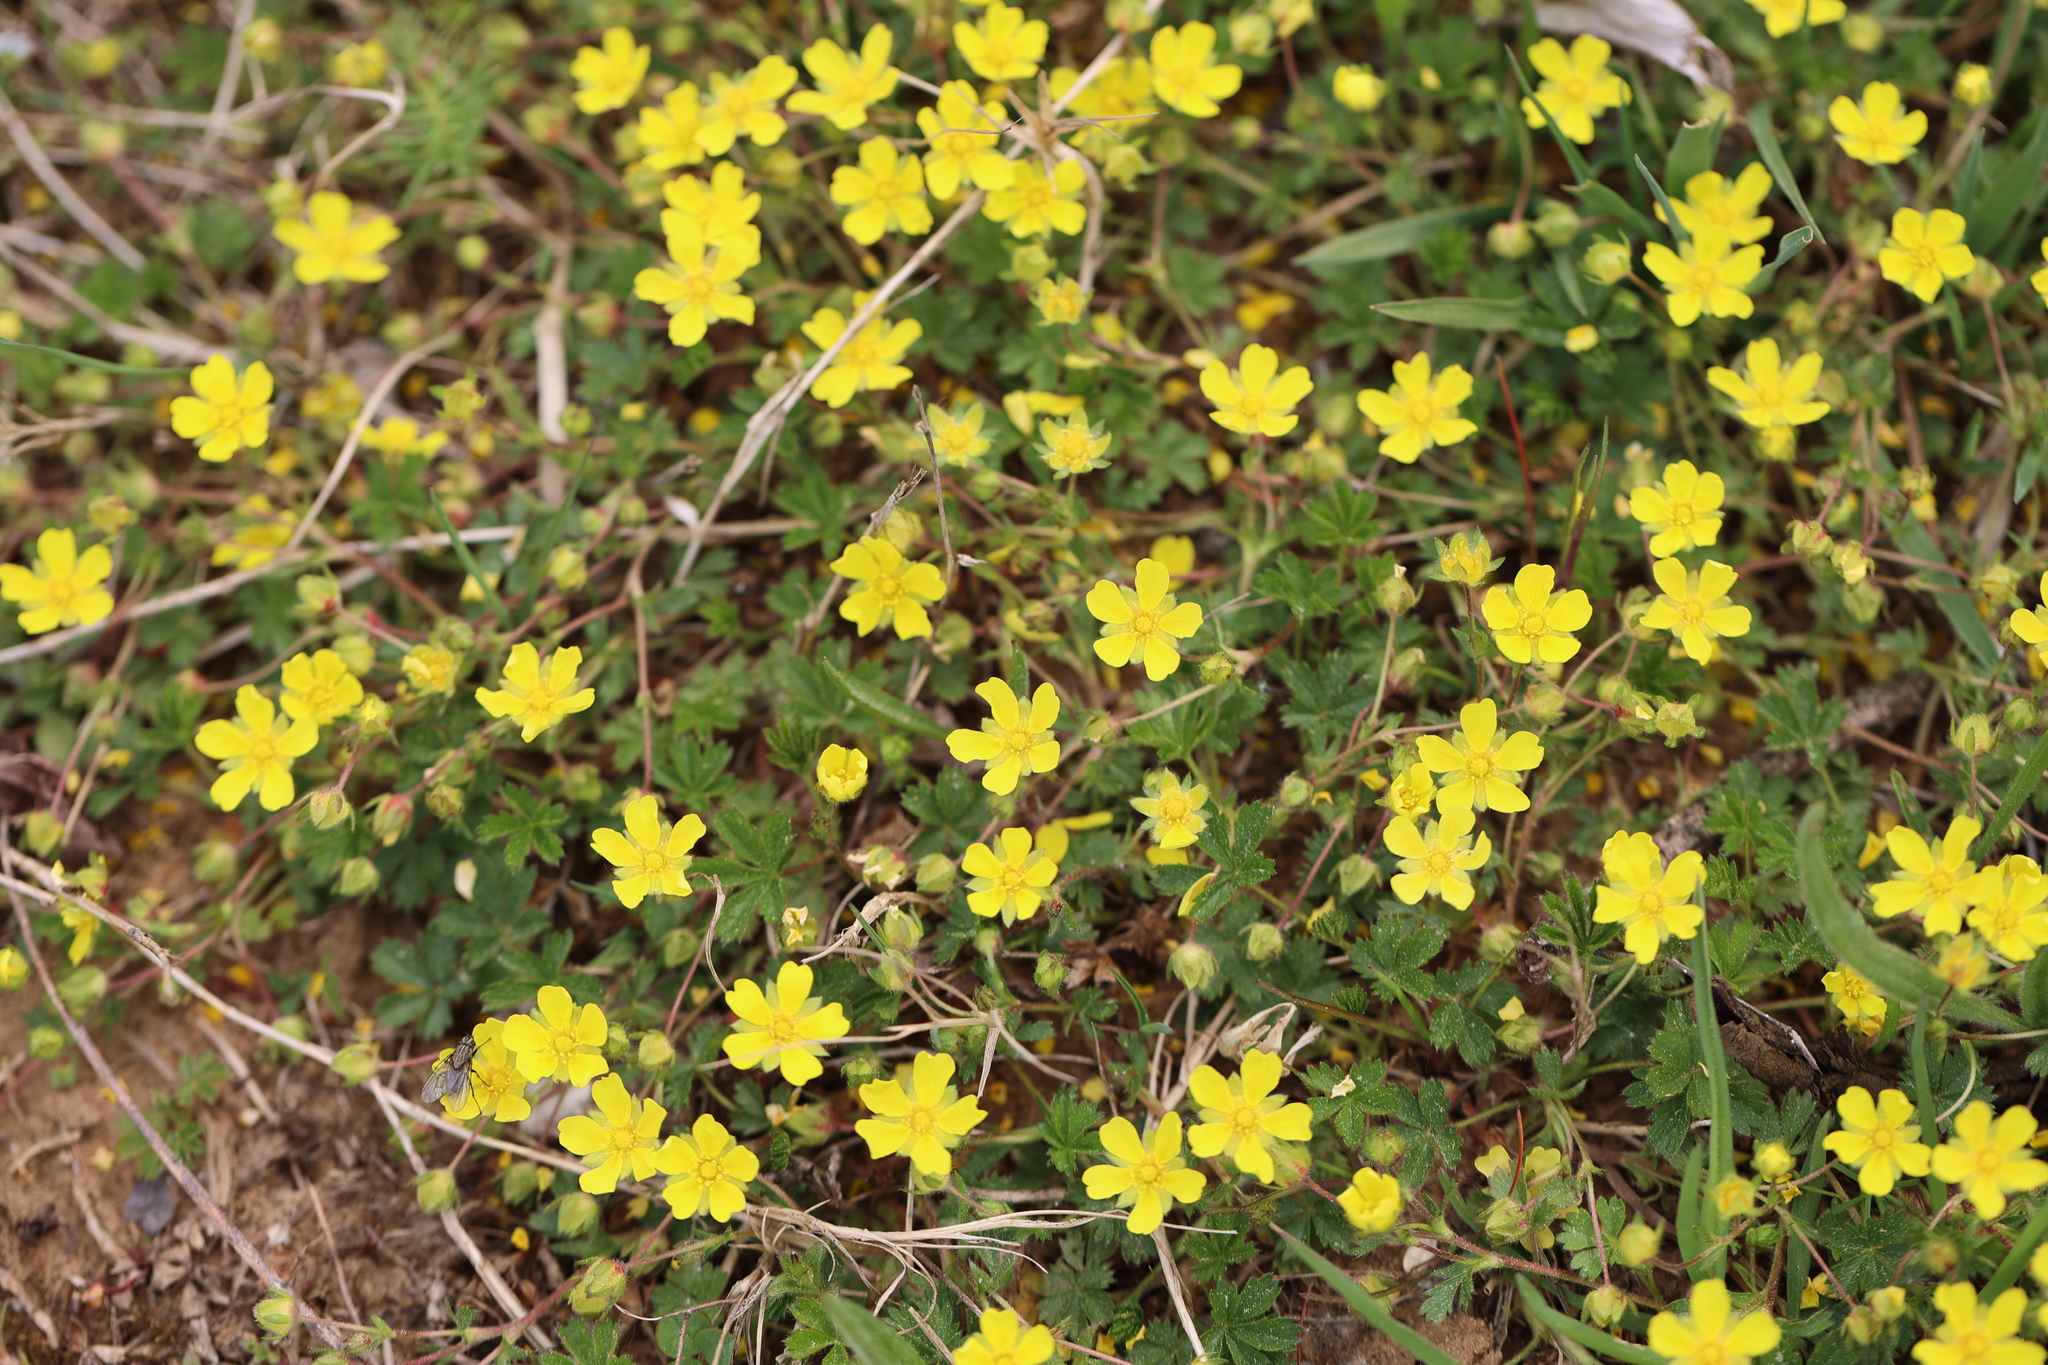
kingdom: Plantae
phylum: Tracheophyta
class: Magnoliopsida
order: Rosales
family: Rosaceae
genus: Potentilla
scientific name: Potentilla verna
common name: Spring cinquefoil
